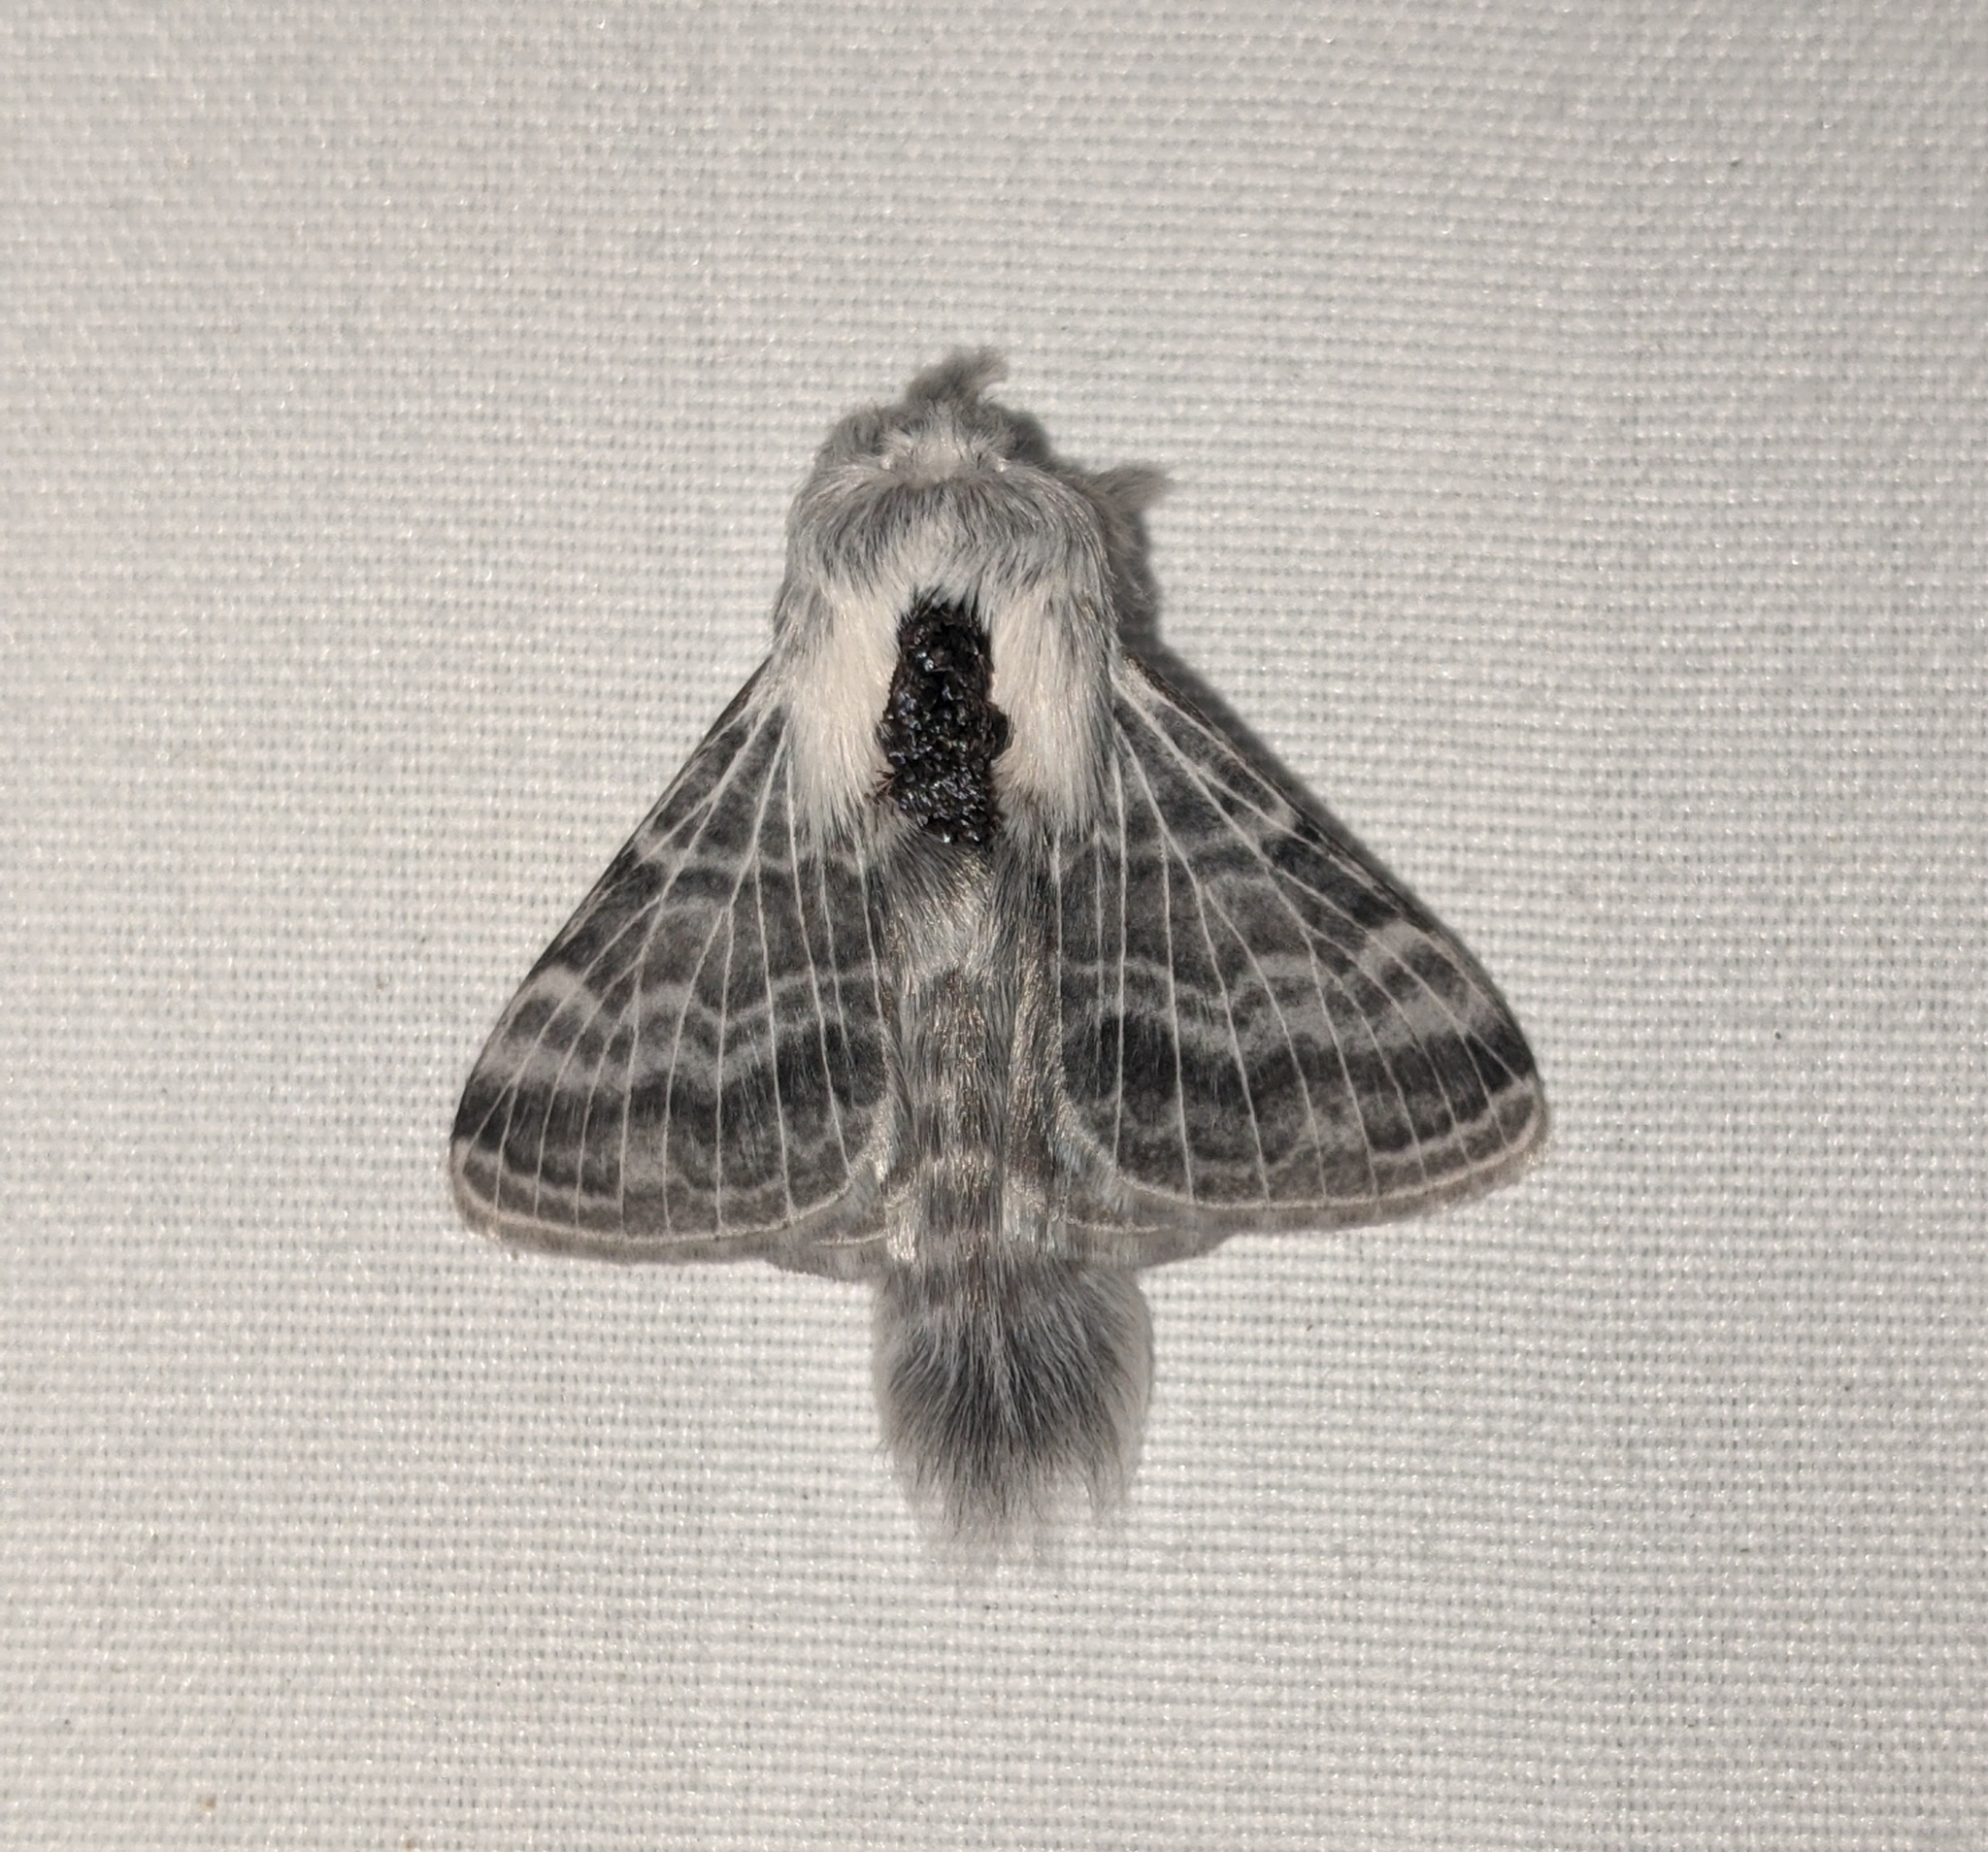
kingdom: Animalia
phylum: Arthropoda
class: Insecta
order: Lepidoptera
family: Lasiocampidae
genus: Tolype
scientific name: Tolype distincta
